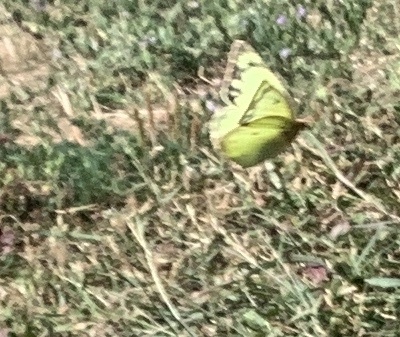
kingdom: Animalia
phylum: Arthropoda
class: Insecta
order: Lepidoptera
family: Pieridae
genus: Colias
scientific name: Colias philodice
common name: Clouded sulphur
